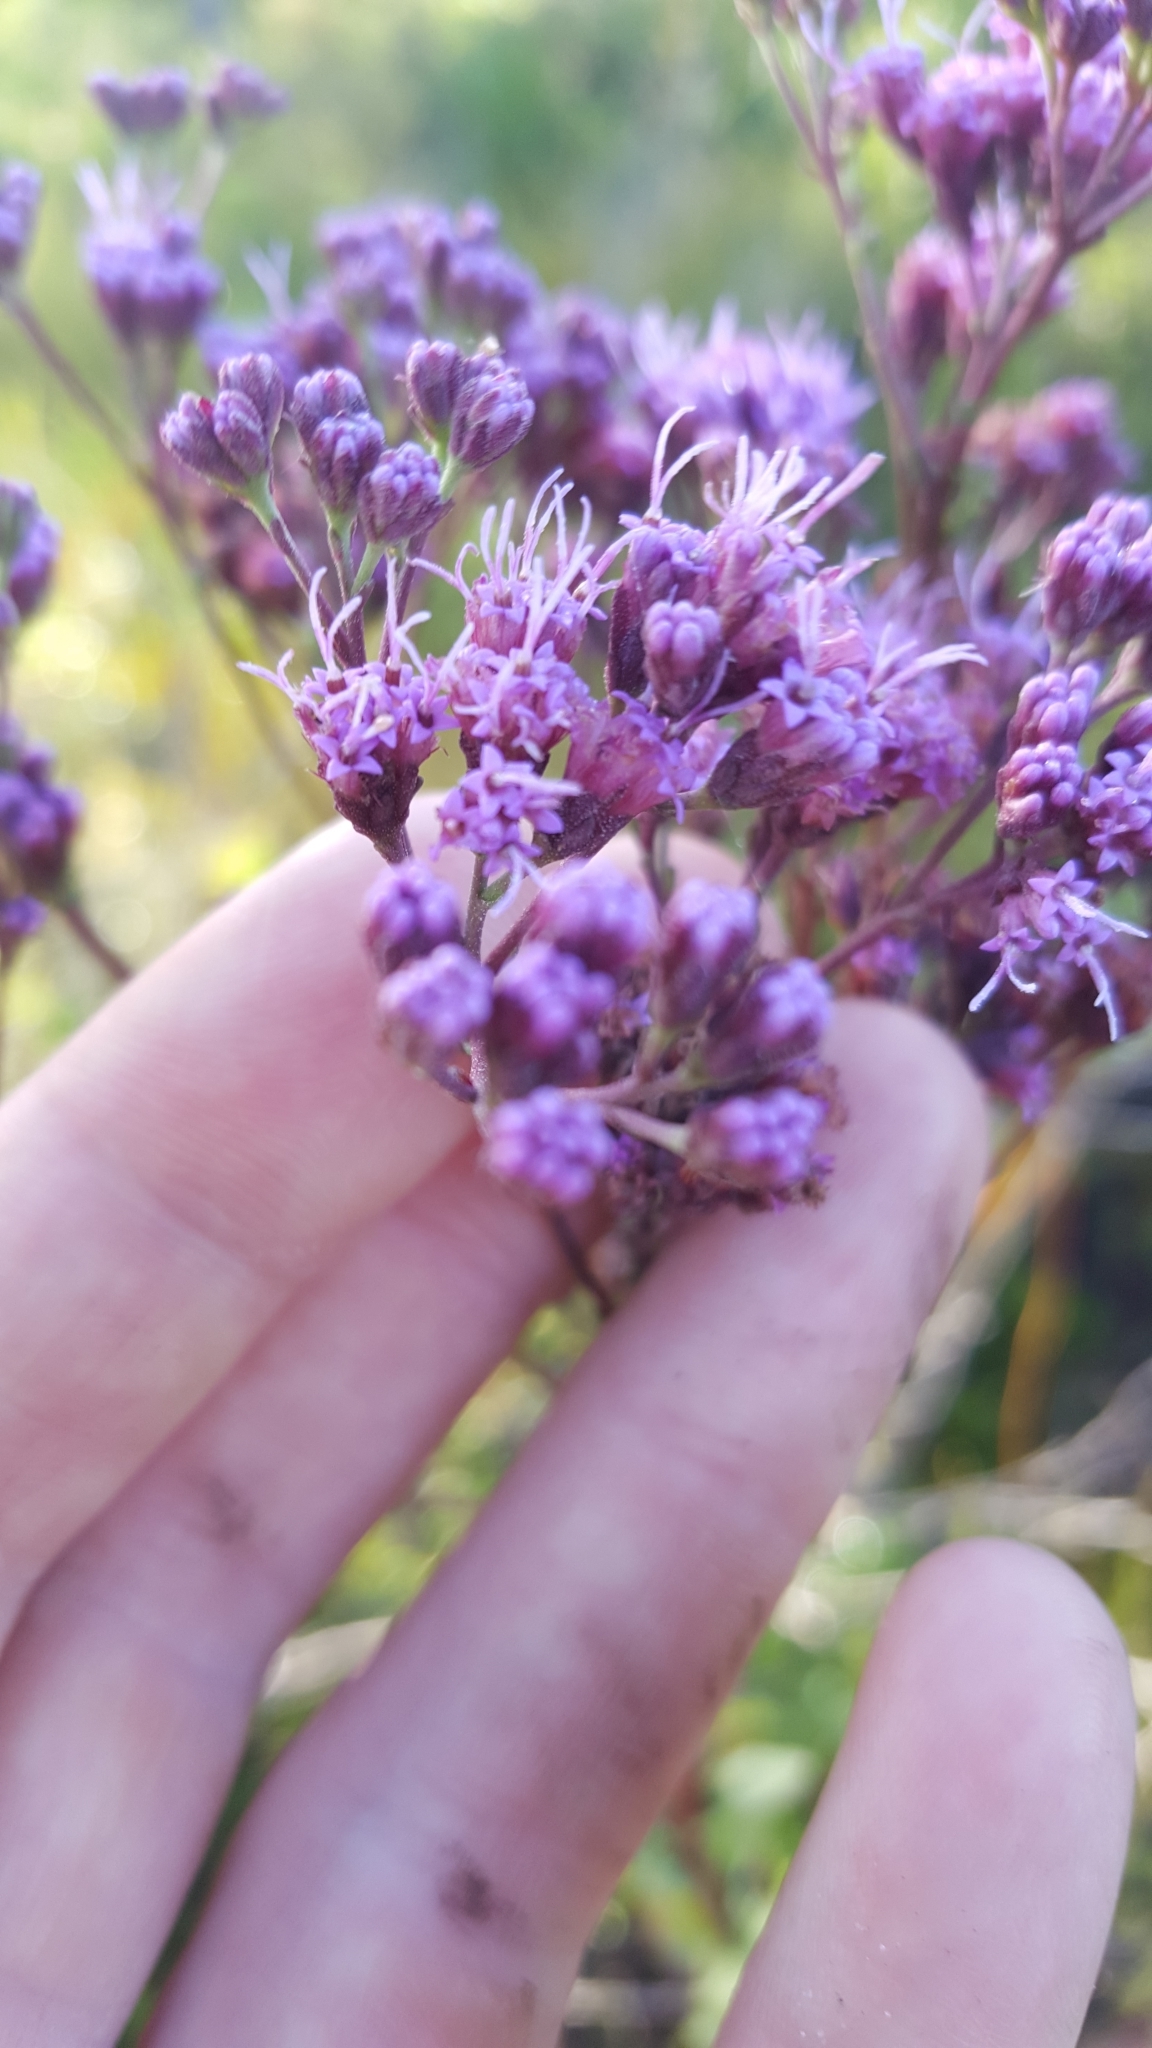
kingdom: Plantae
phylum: Tracheophyta
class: Magnoliopsida
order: Asterales
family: Asteraceae
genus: Carphephorus
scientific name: Carphephorus odoratissimus
